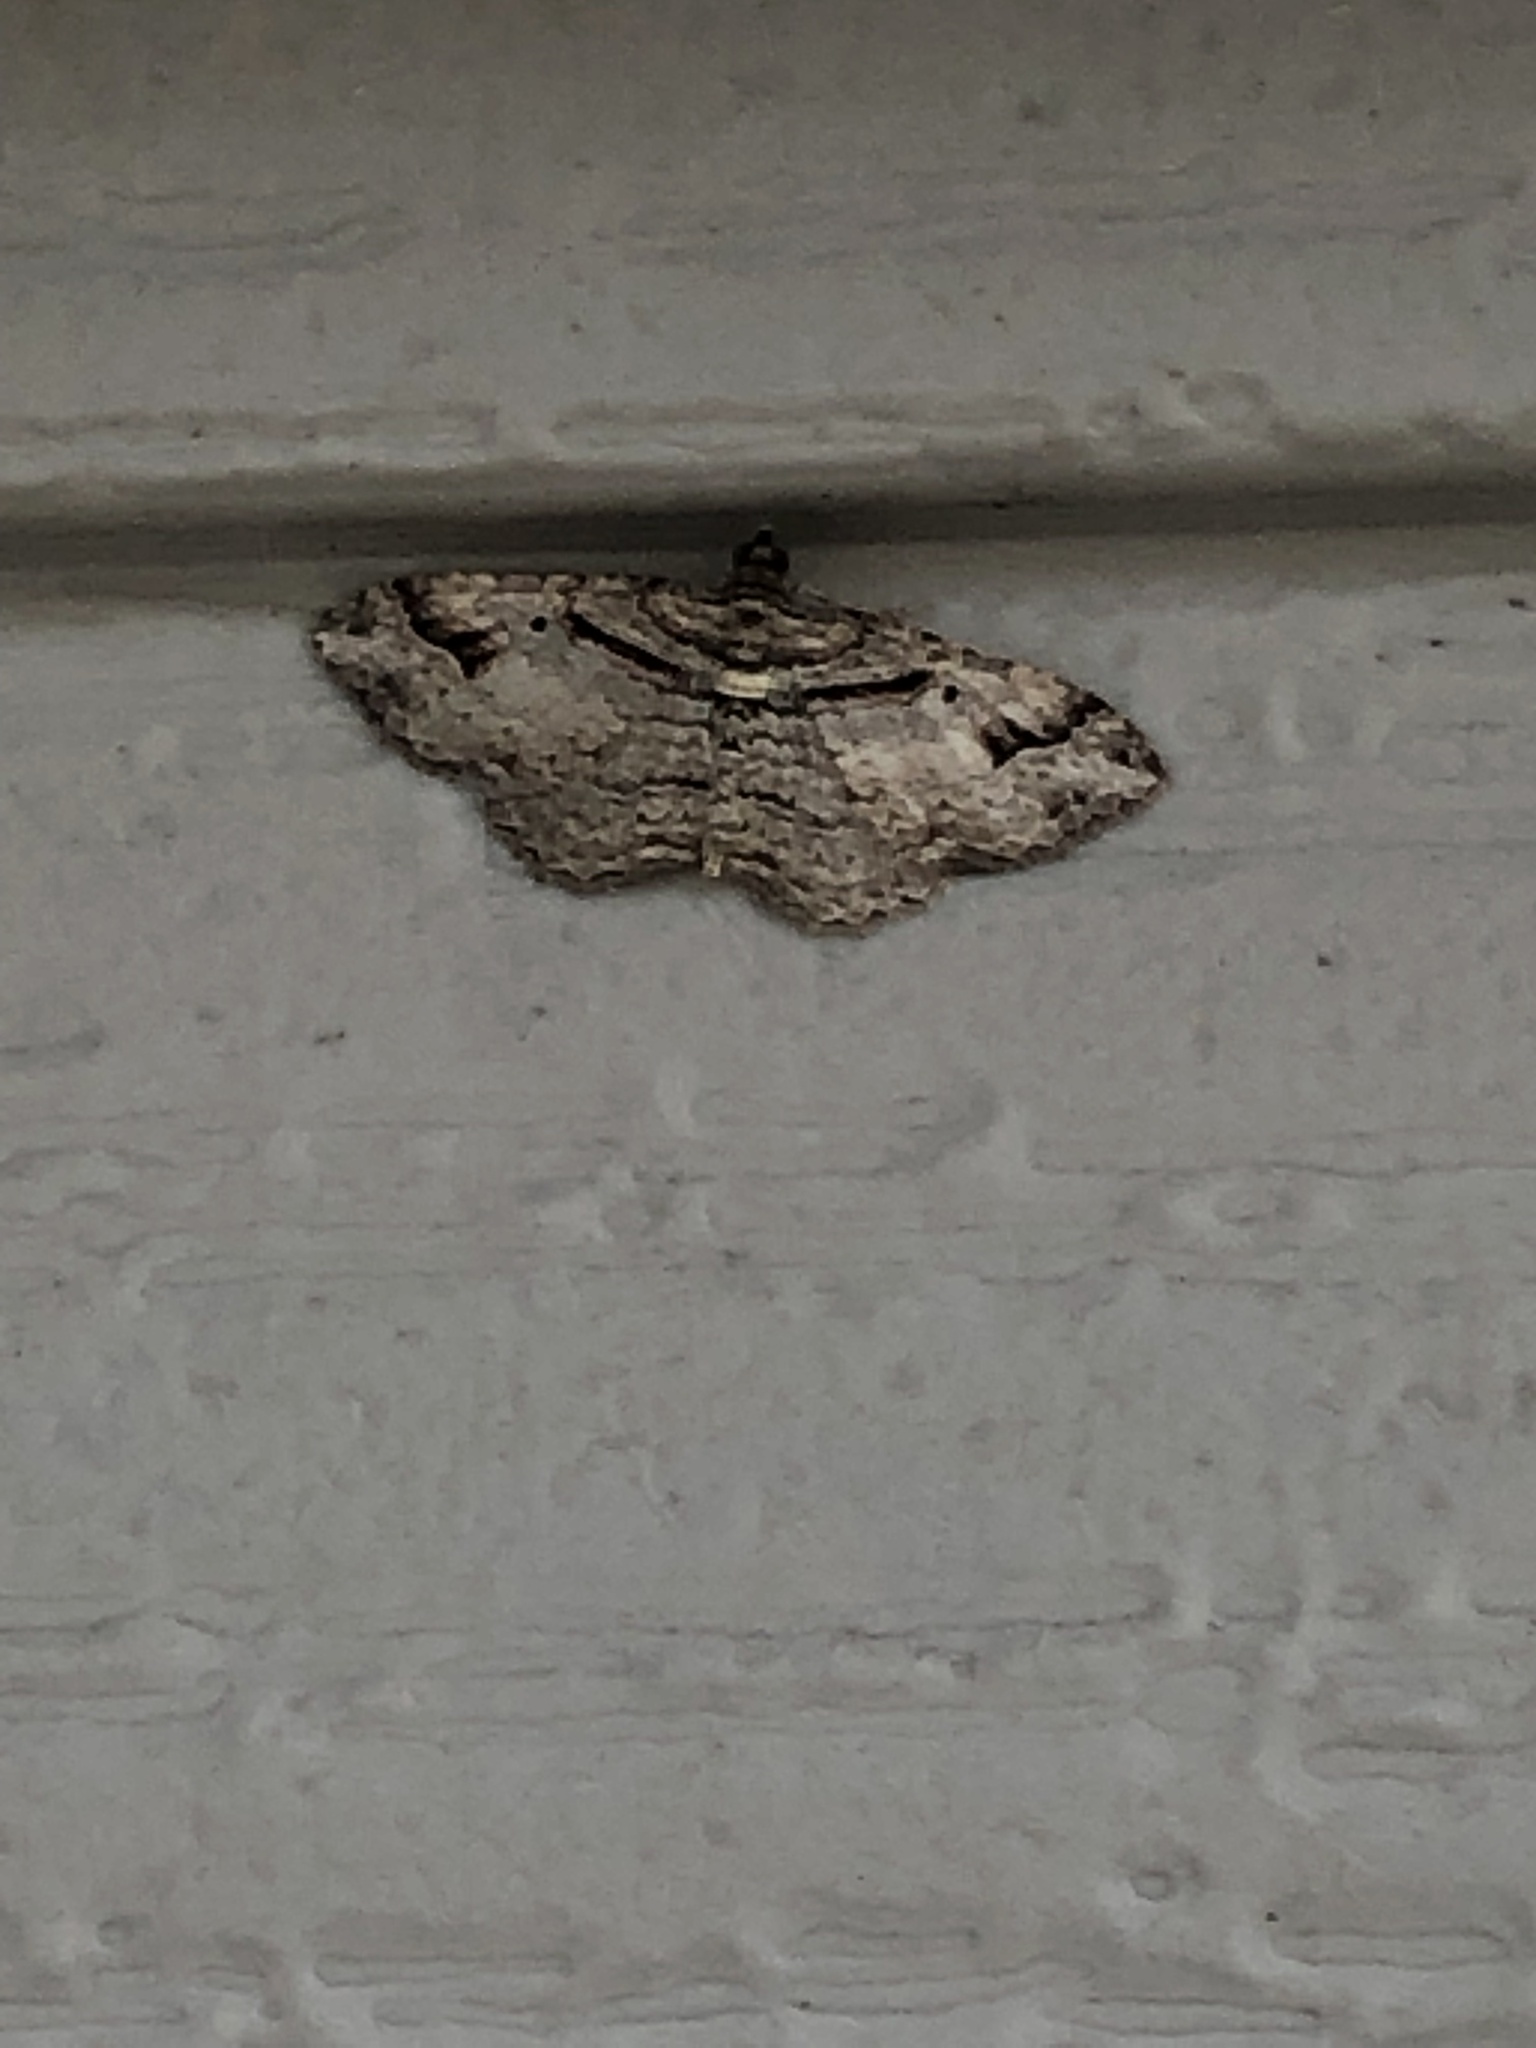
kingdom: Animalia
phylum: Arthropoda
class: Insecta
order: Lepidoptera
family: Geometridae
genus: Costaconvexa
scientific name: Costaconvexa centrostrigaria
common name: Bent-line carpet
